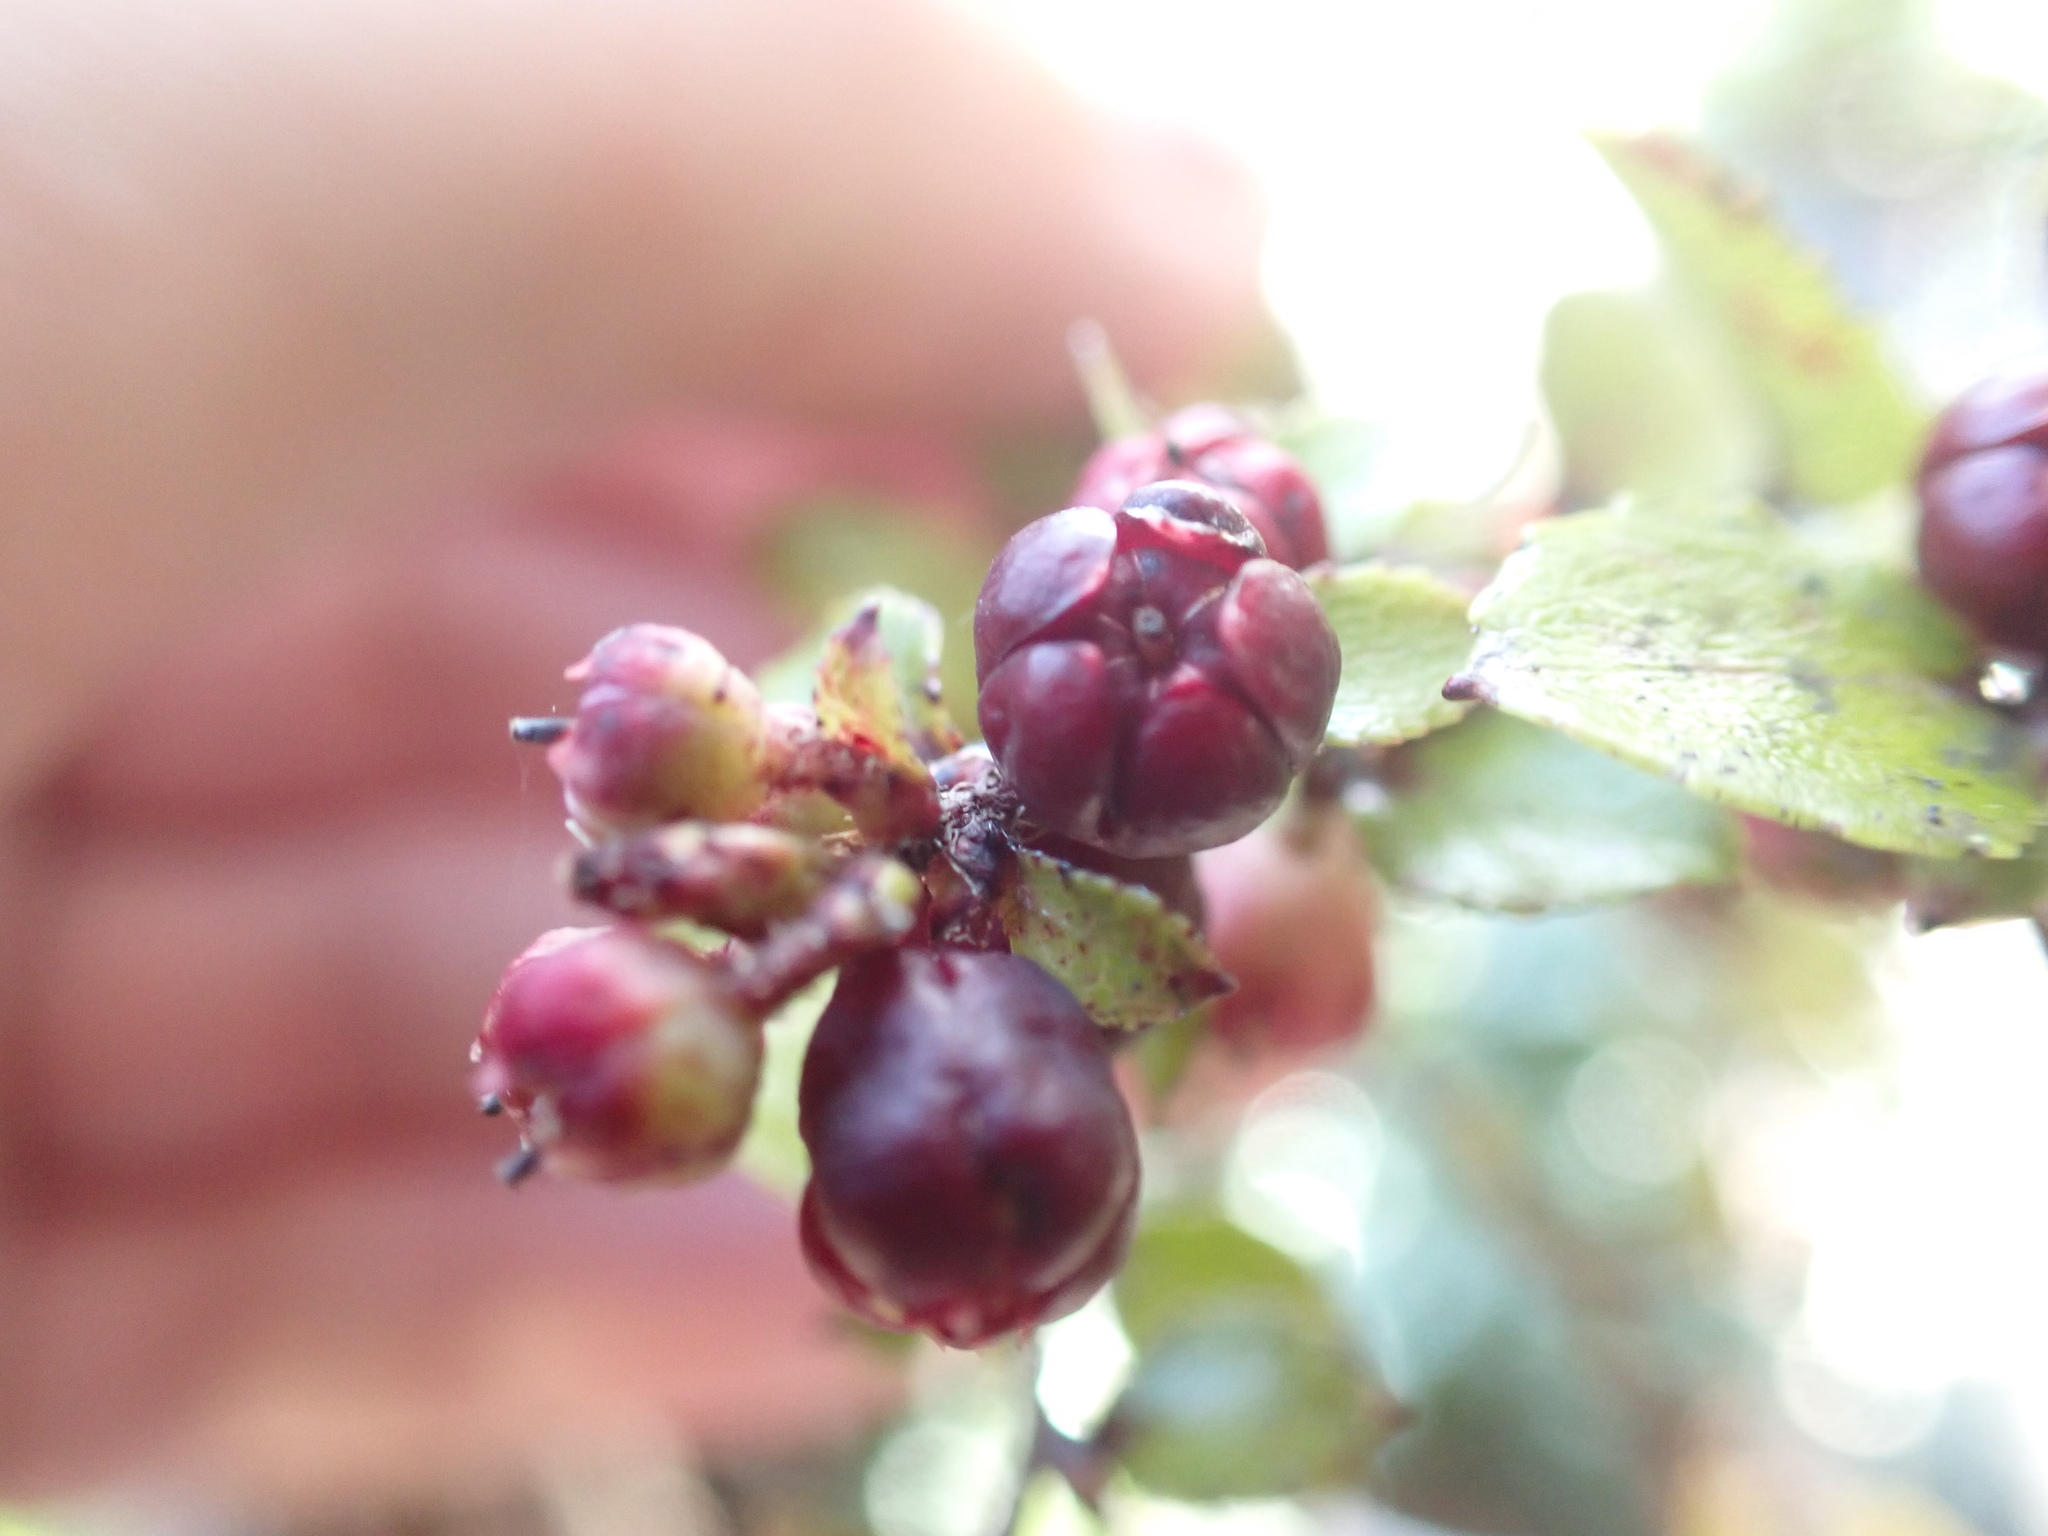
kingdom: Plantae
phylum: Tracheophyta
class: Magnoliopsida
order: Ericales
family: Ericaceae
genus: Gaultheria
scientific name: Gaultheria antipoda
